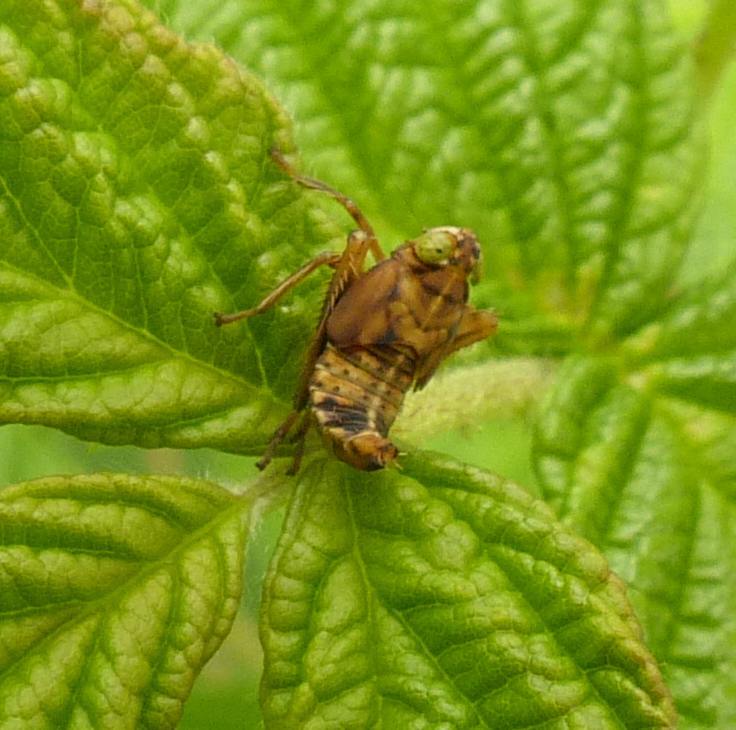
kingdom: Animalia
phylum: Arthropoda
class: Insecta
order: Hemiptera
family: Cicadellidae
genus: Jikradia
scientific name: Jikradia olitoria
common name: Coppery leafhopper
